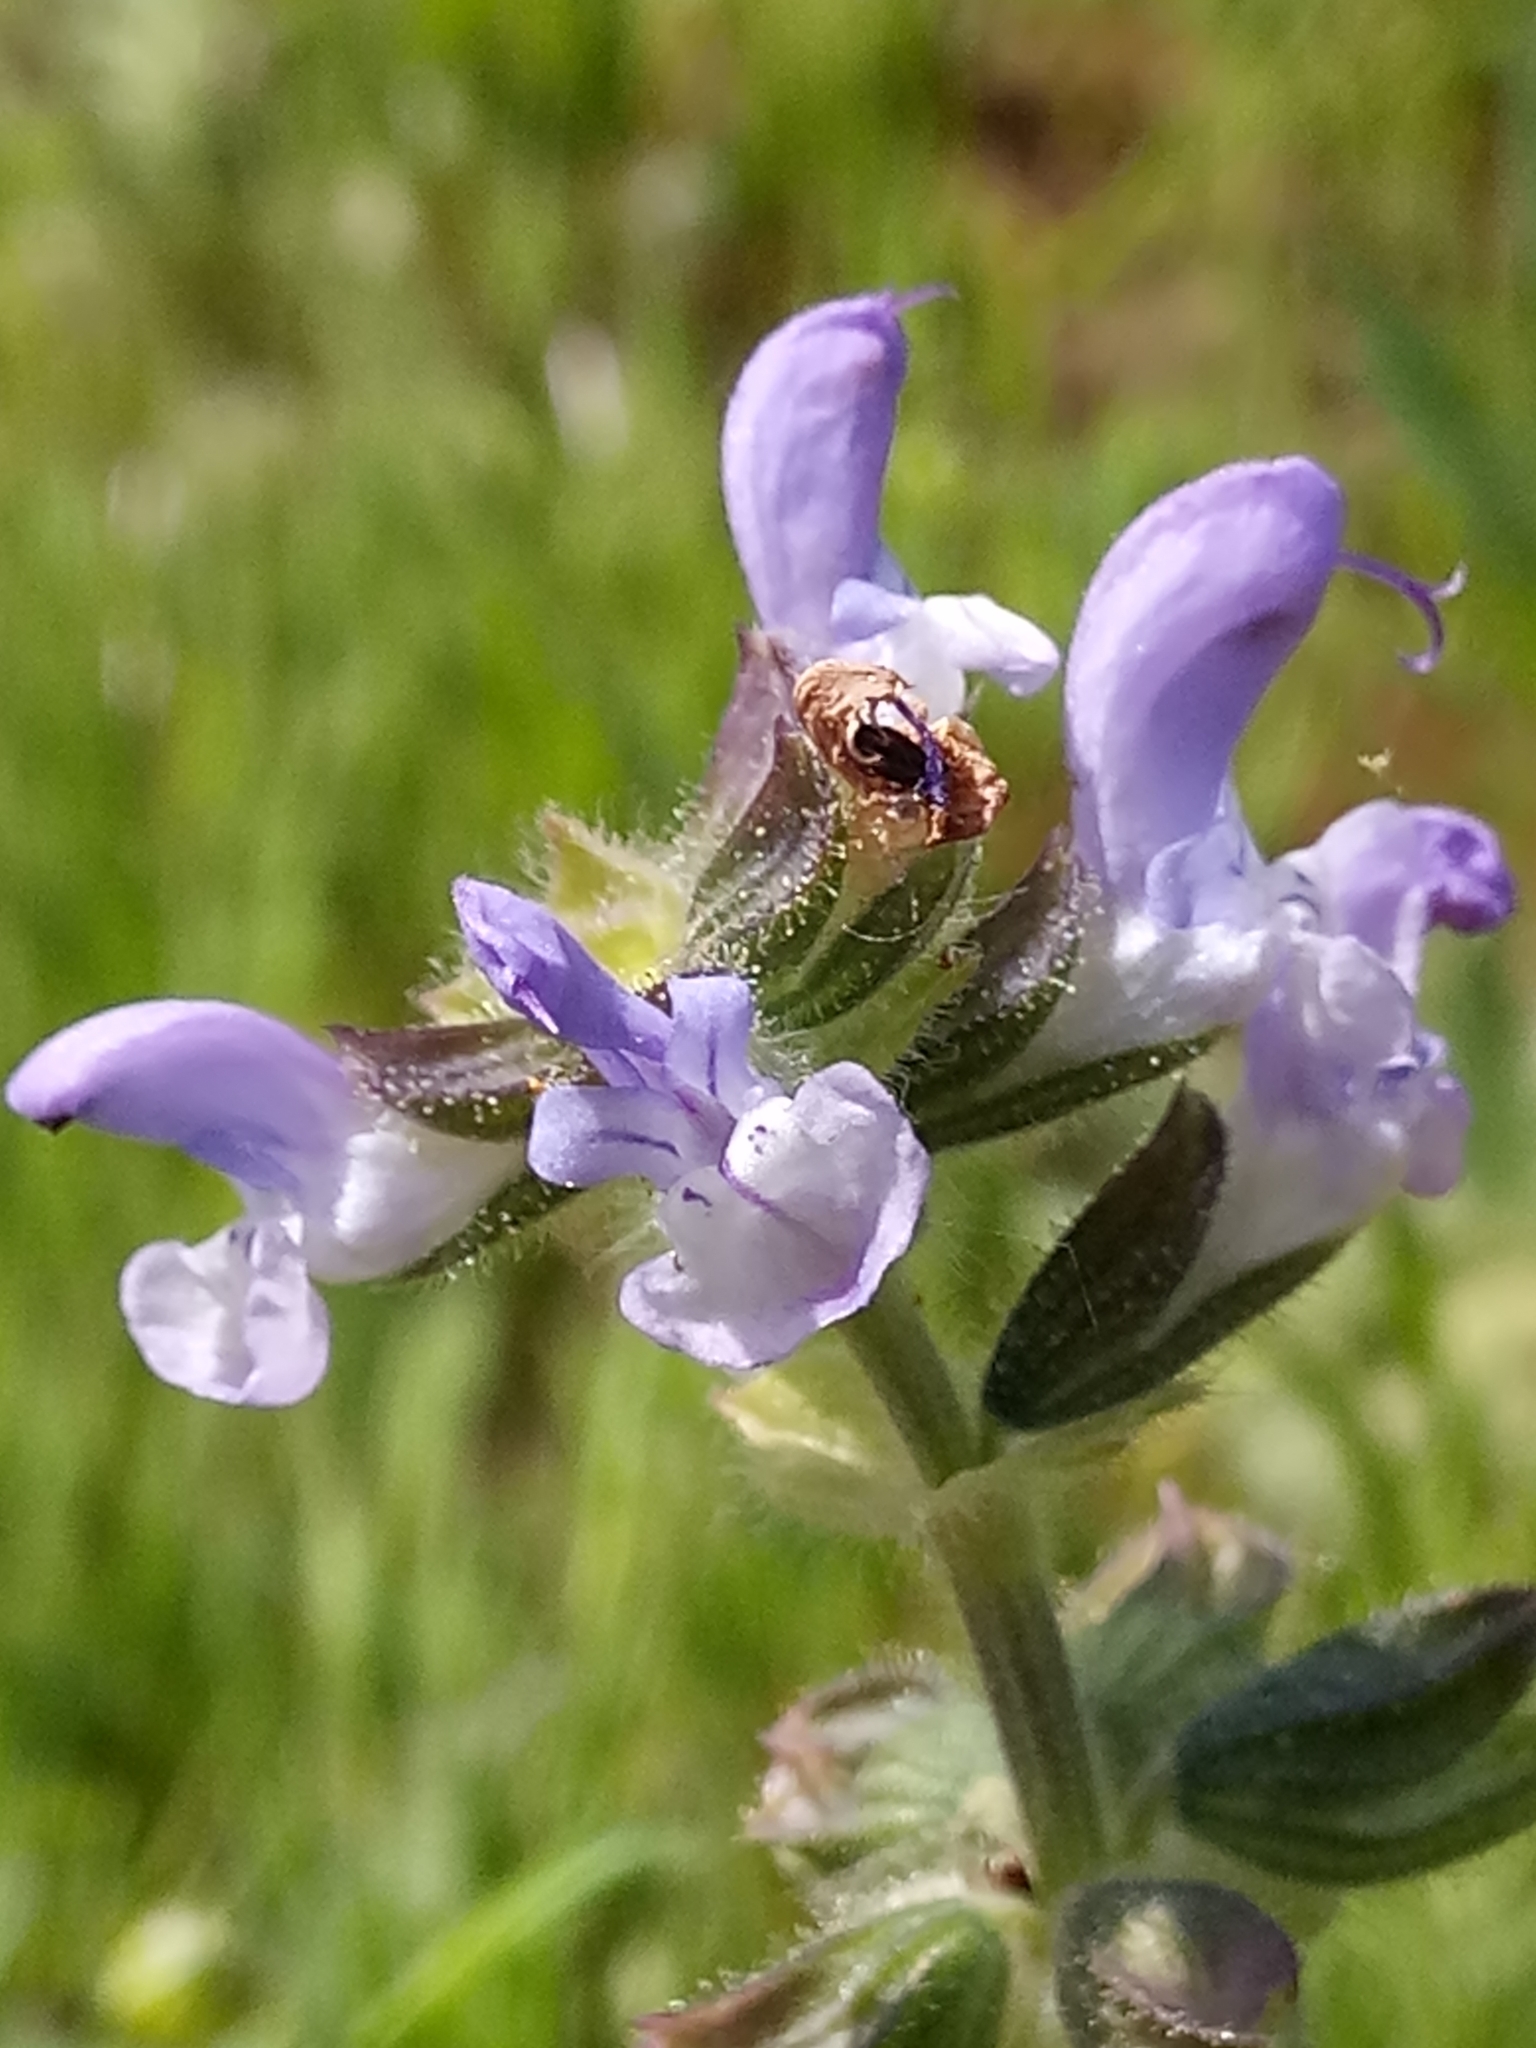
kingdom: Plantae
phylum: Tracheophyta
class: Magnoliopsida
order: Lamiales
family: Lamiaceae
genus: Salvia
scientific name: Salvia verbenaca
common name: Wild clary
